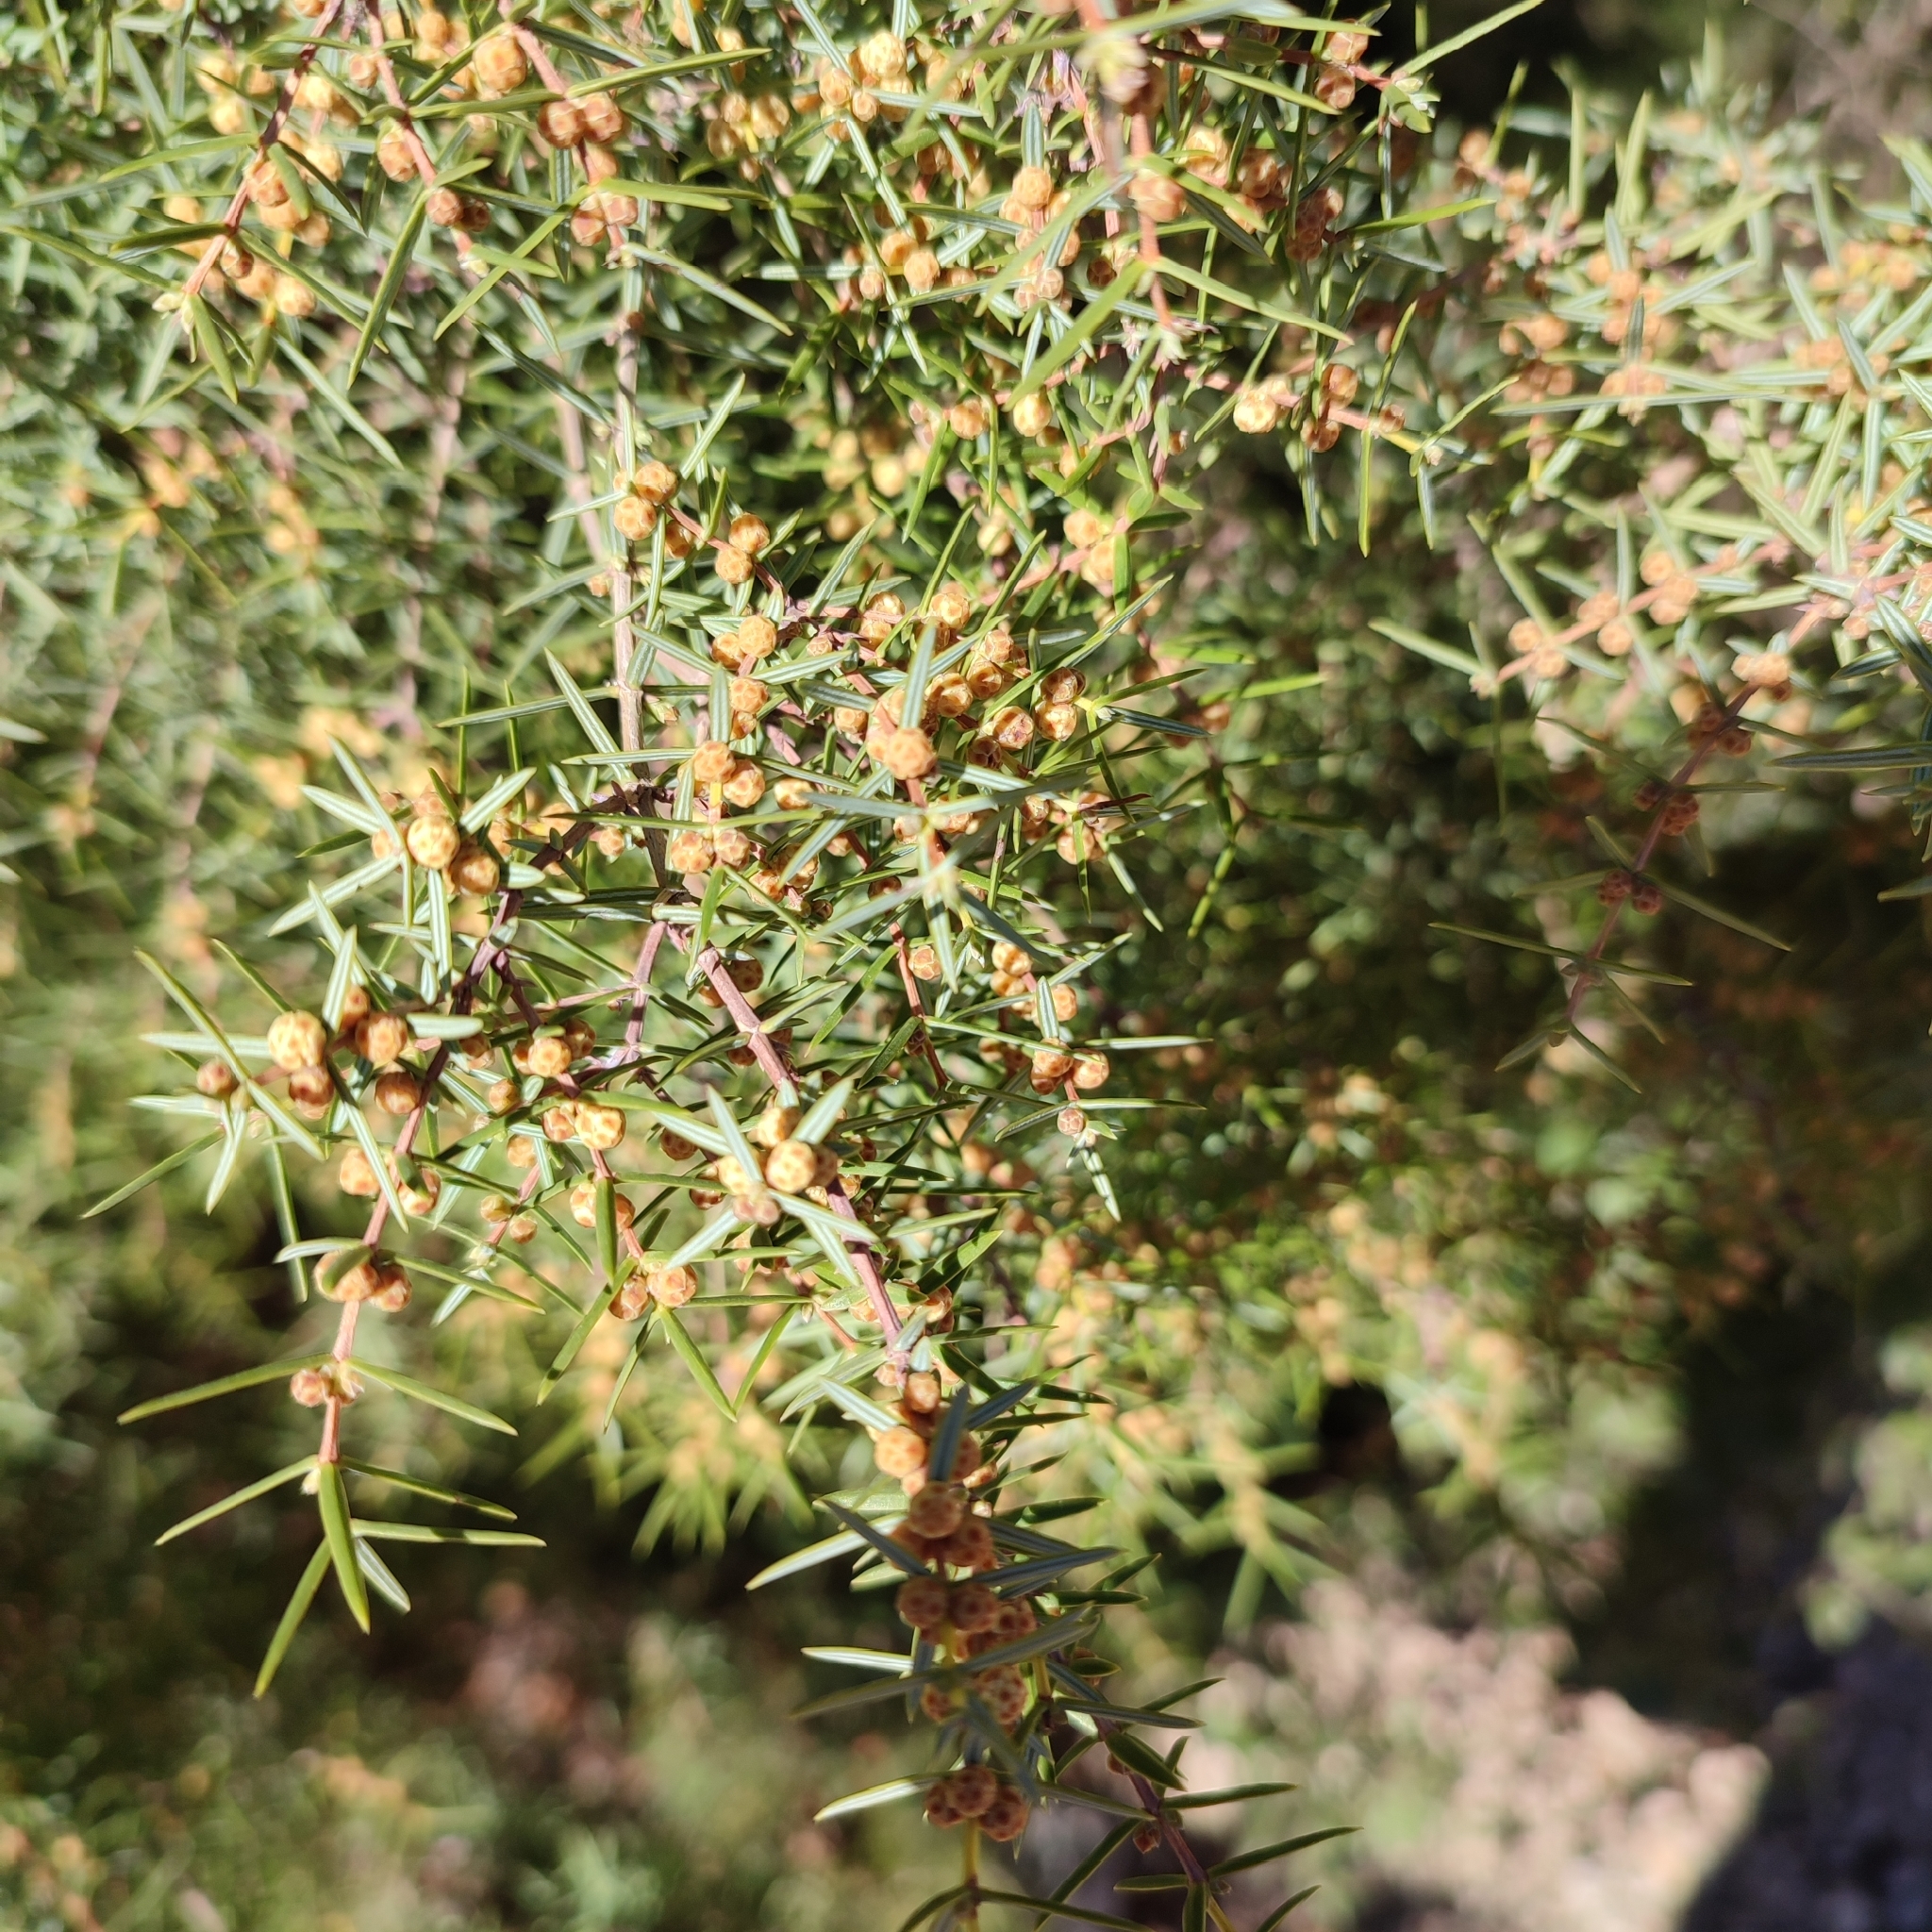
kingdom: Plantae
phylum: Tracheophyta
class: Pinopsida
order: Pinales
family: Cupressaceae
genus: Juniperus
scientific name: Juniperus oxycedrus
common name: Prickly juniper
